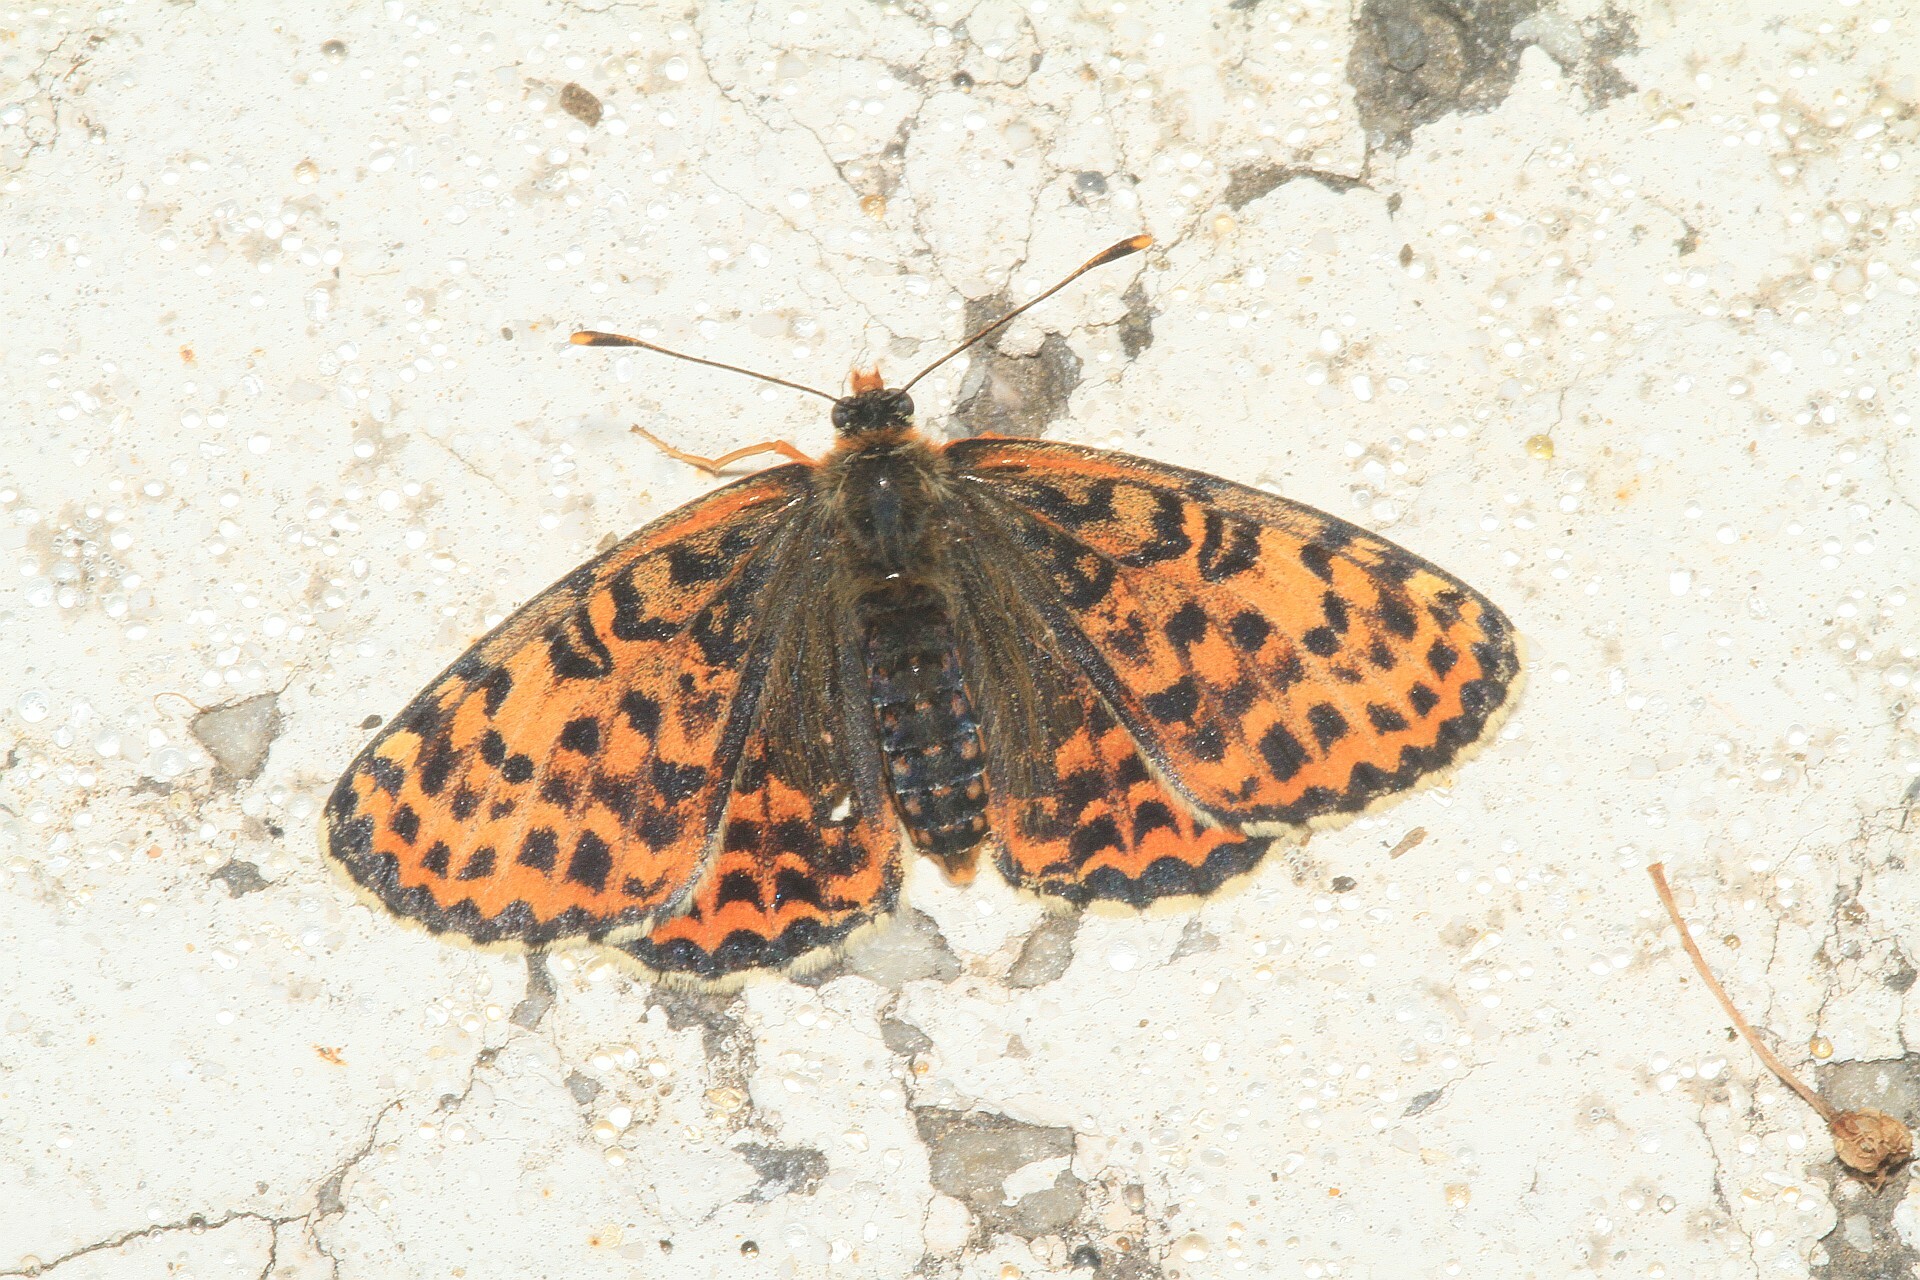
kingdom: Animalia
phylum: Arthropoda
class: Insecta
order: Lepidoptera
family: Nymphalidae
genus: Melitaea
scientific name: Melitaea didyma
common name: Spotted fritillary
